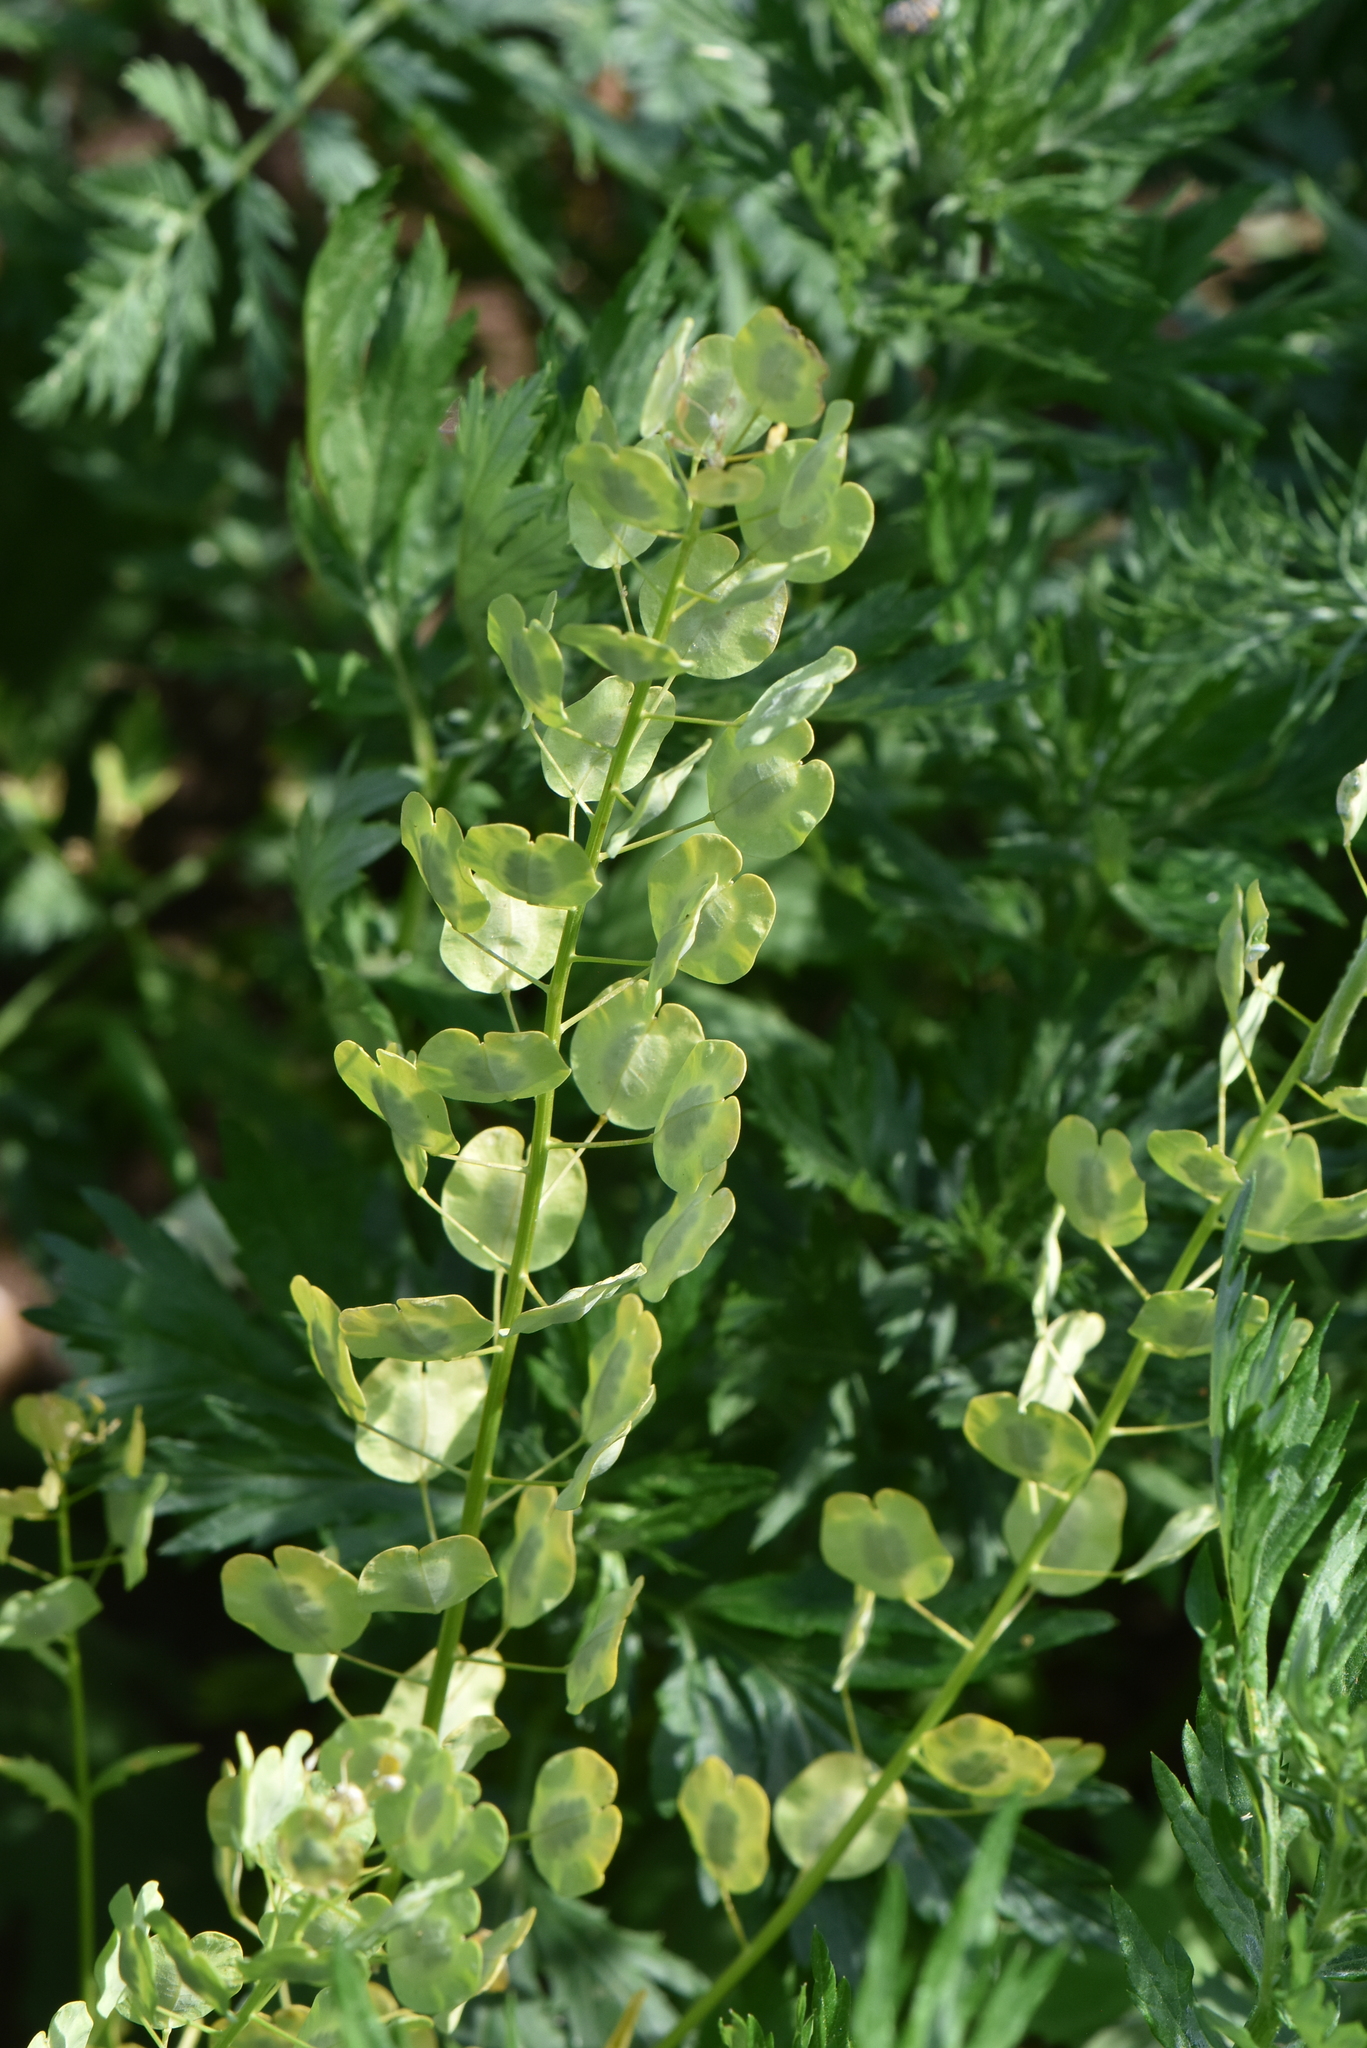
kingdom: Plantae
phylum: Tracheophyta
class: Magnoliopsida
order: Brassicales
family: Brassicaceae
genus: Thlaspi
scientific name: Thlaspi arvense
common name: Field pennycress
